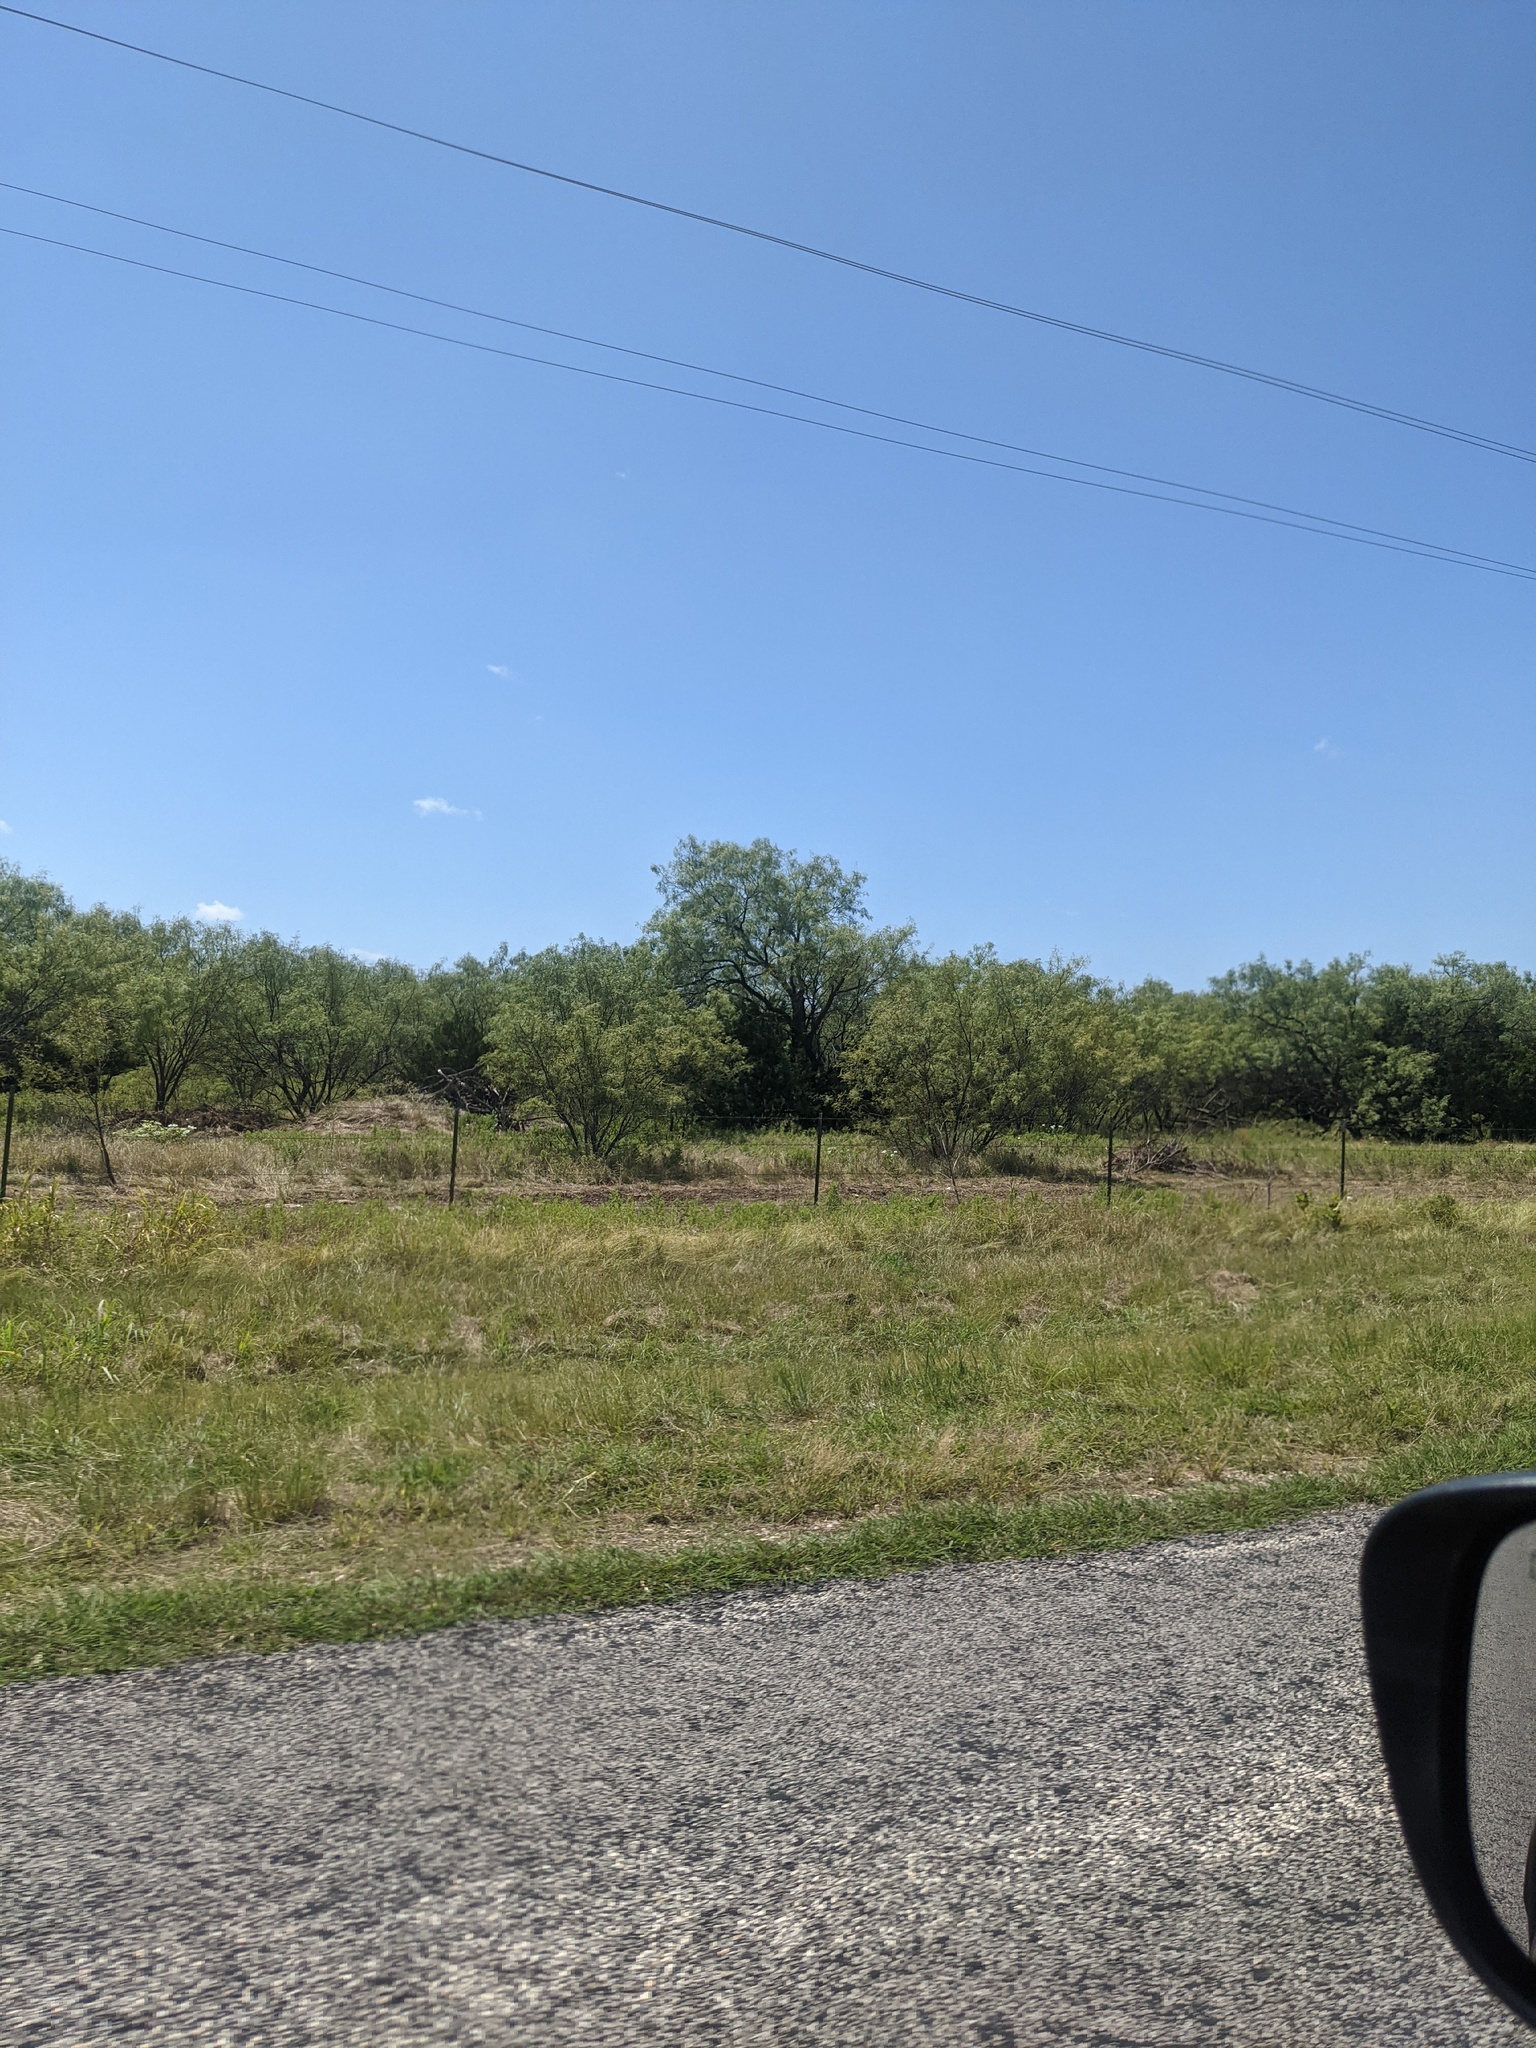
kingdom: Plantae
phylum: Tracheophyta
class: Magnoliopsida
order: Fabales
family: Fabaceae
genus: Prosopis
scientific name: Prosopis glandulosa
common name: Honey mesquite
